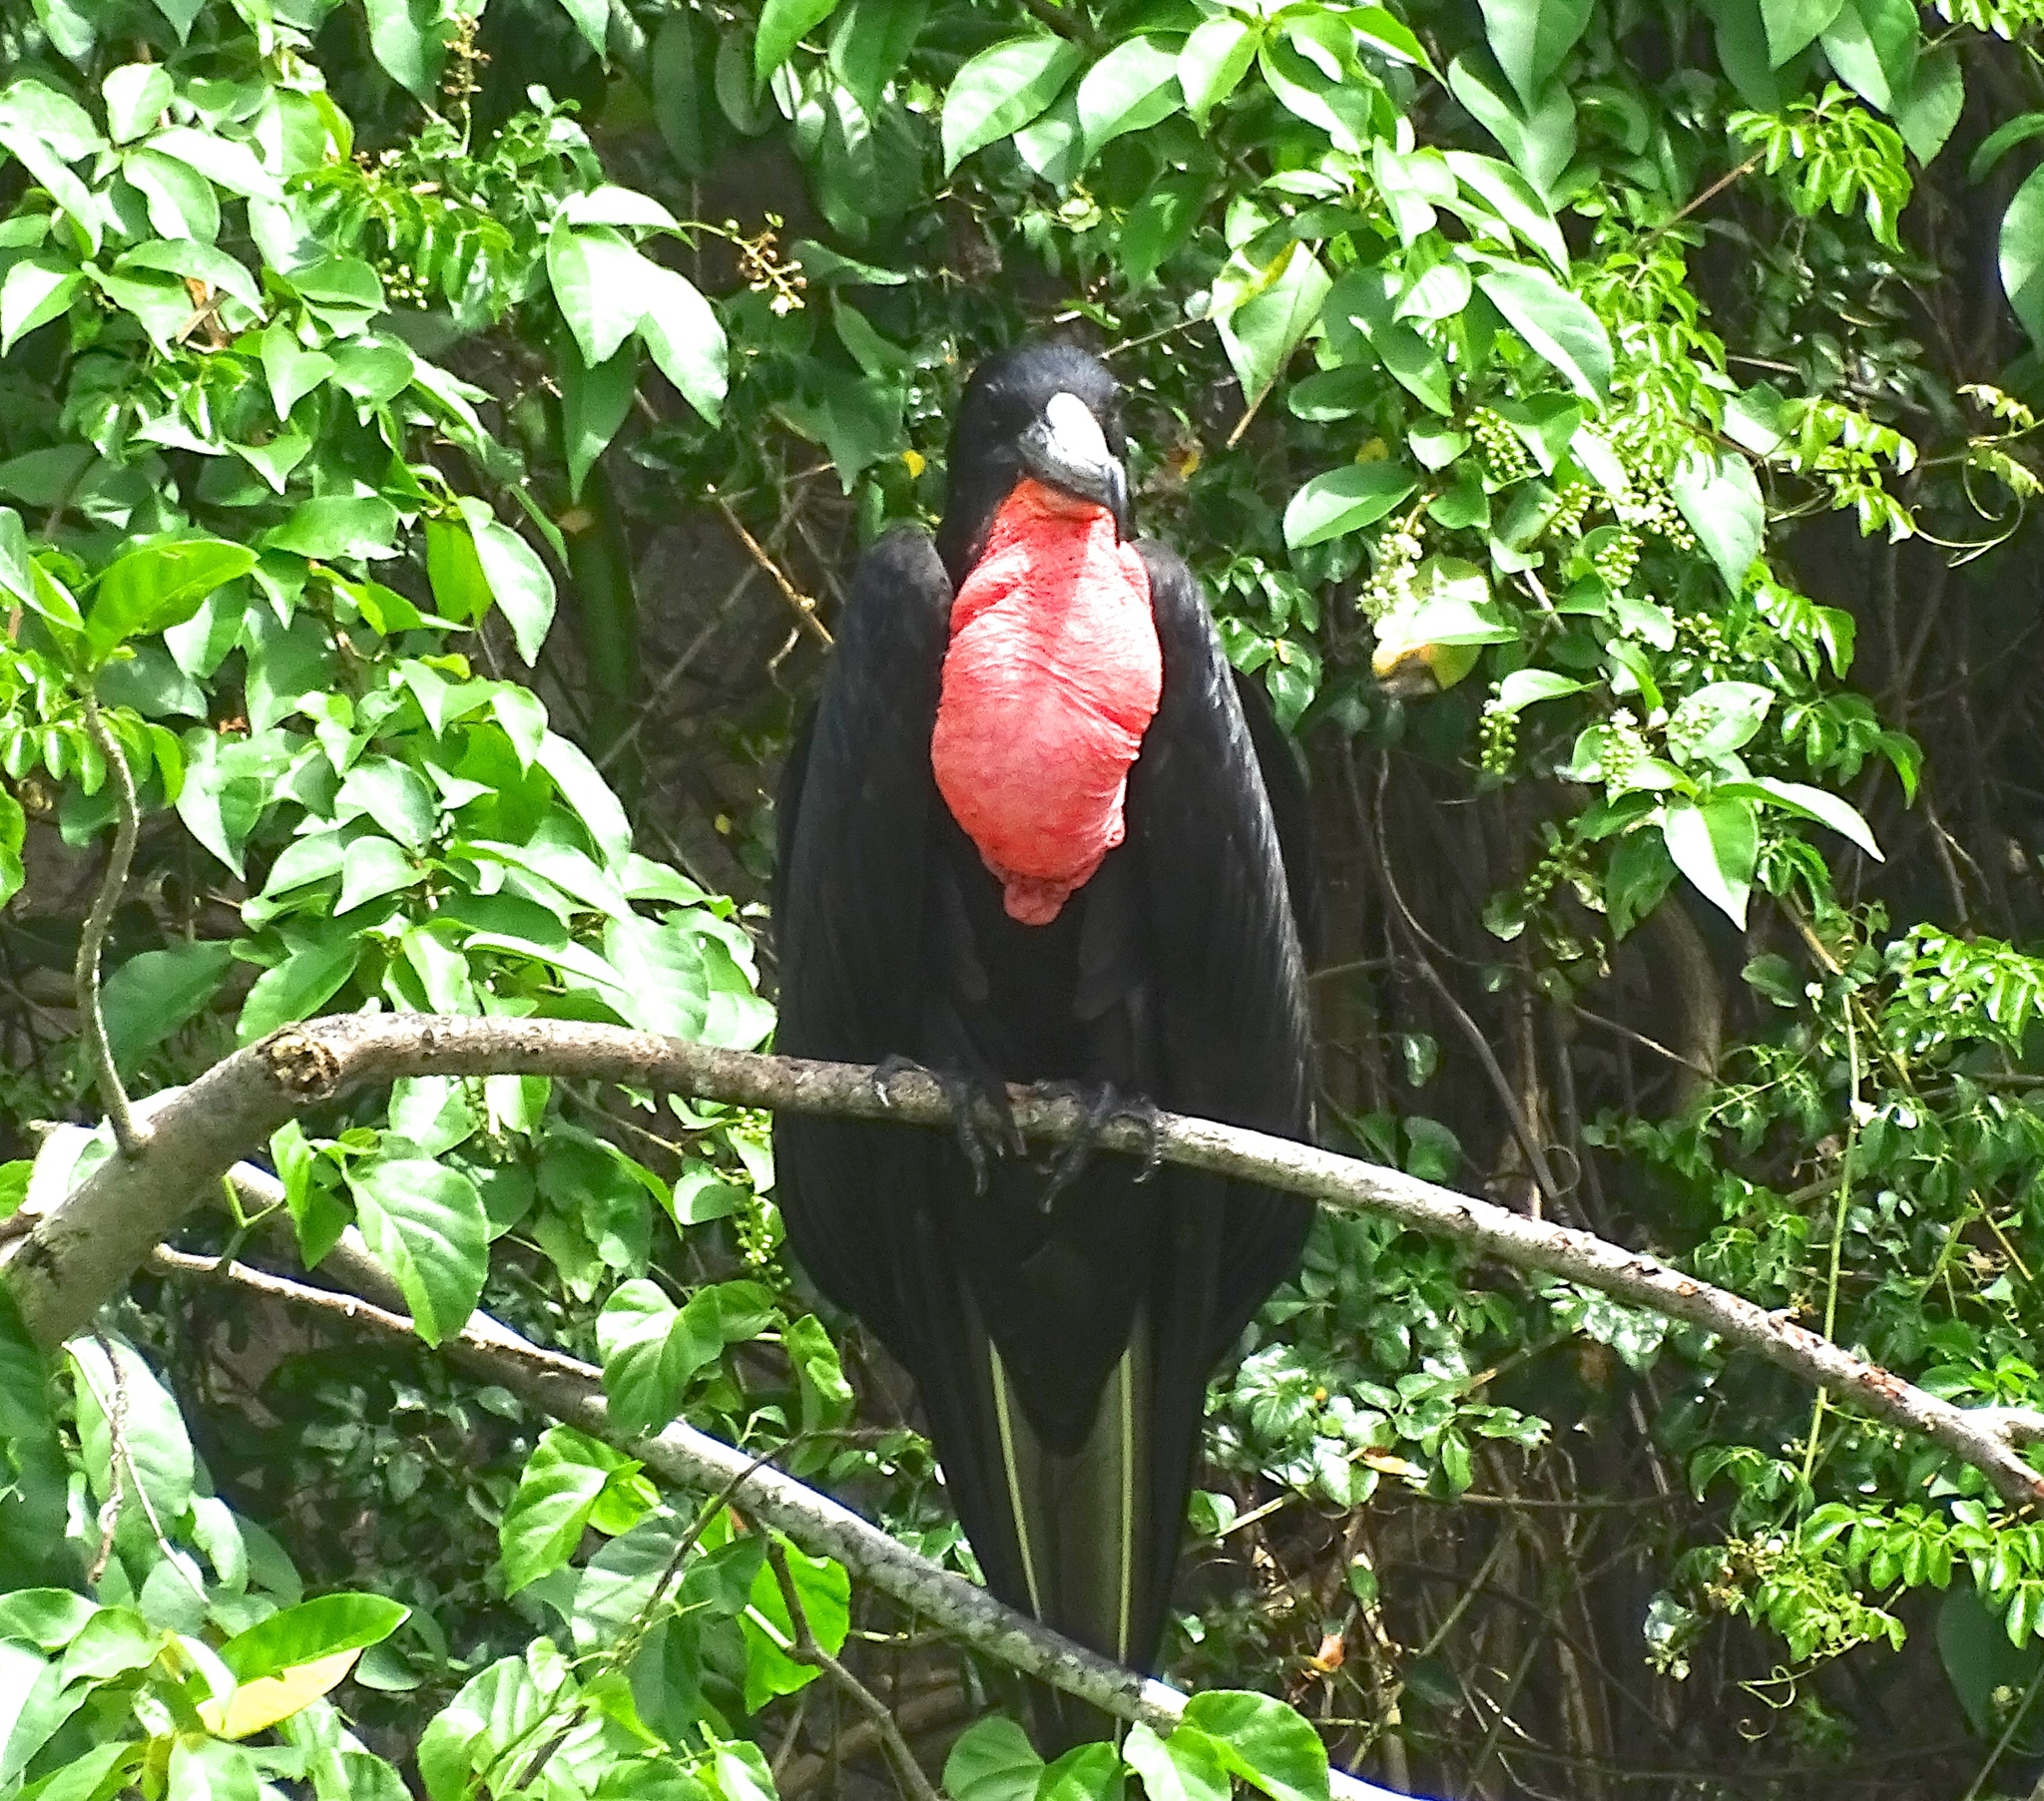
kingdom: Animalia
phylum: Chordata
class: Aves
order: Suliformes
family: Fregatidae
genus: Fregata
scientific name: Fregata magnificens
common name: Magnificent frigatebird
